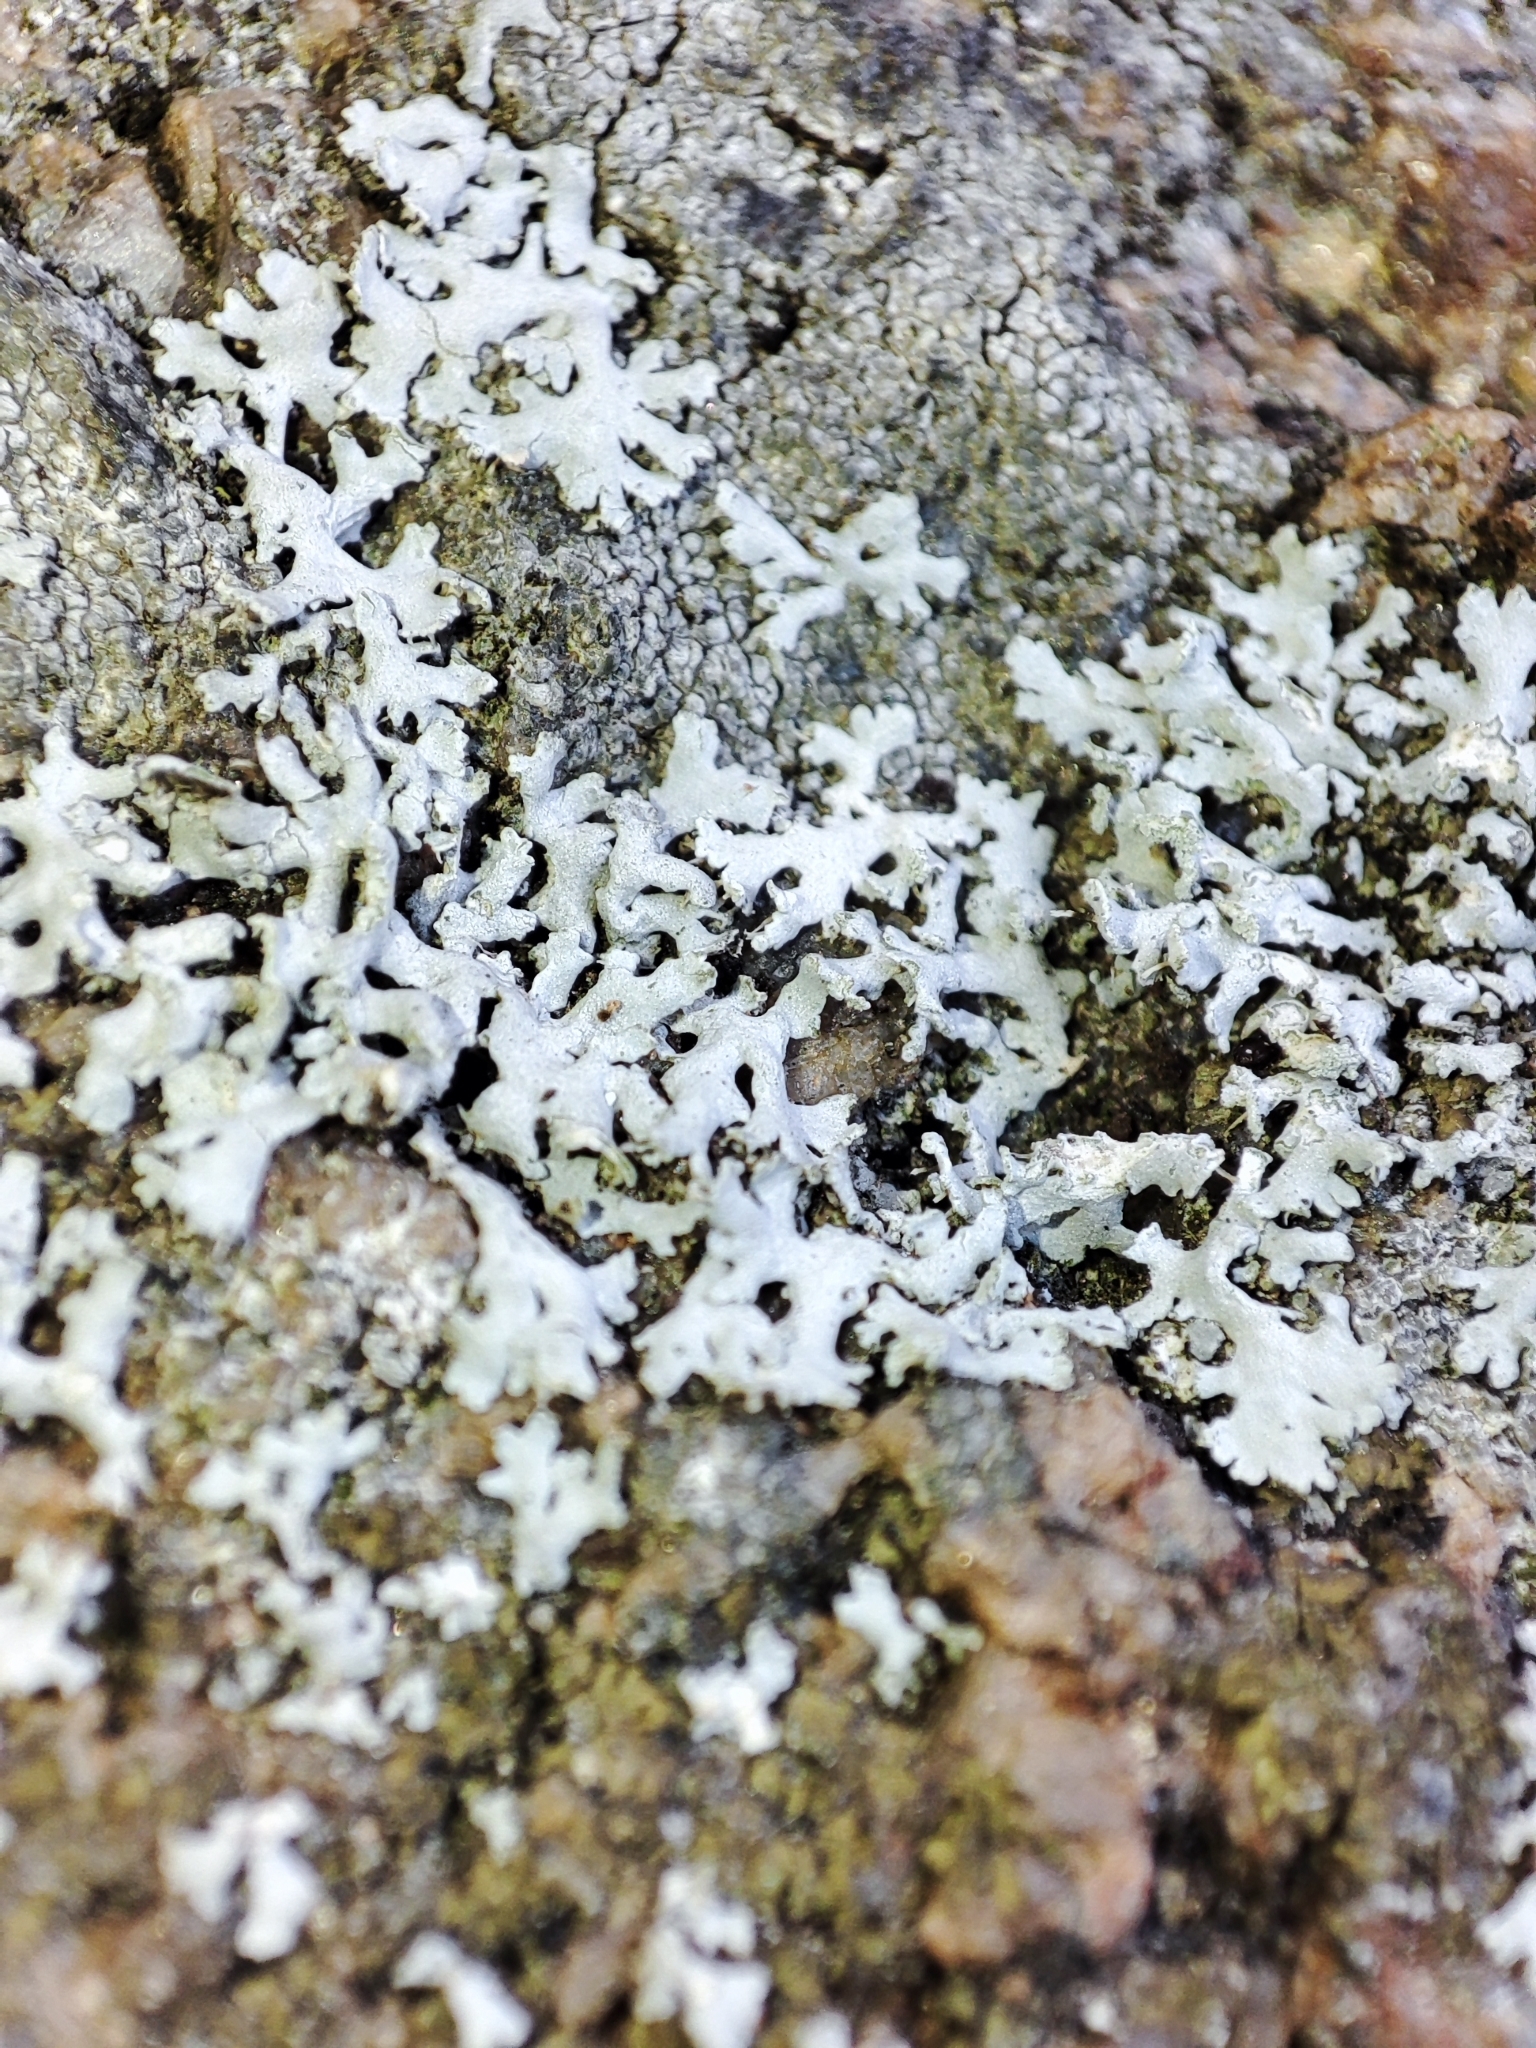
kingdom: Fungi
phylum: Ascomycota
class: Lecanoromycetes
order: Caliciales
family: Physciaceae
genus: Physcia
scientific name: Physcia dimidiata
